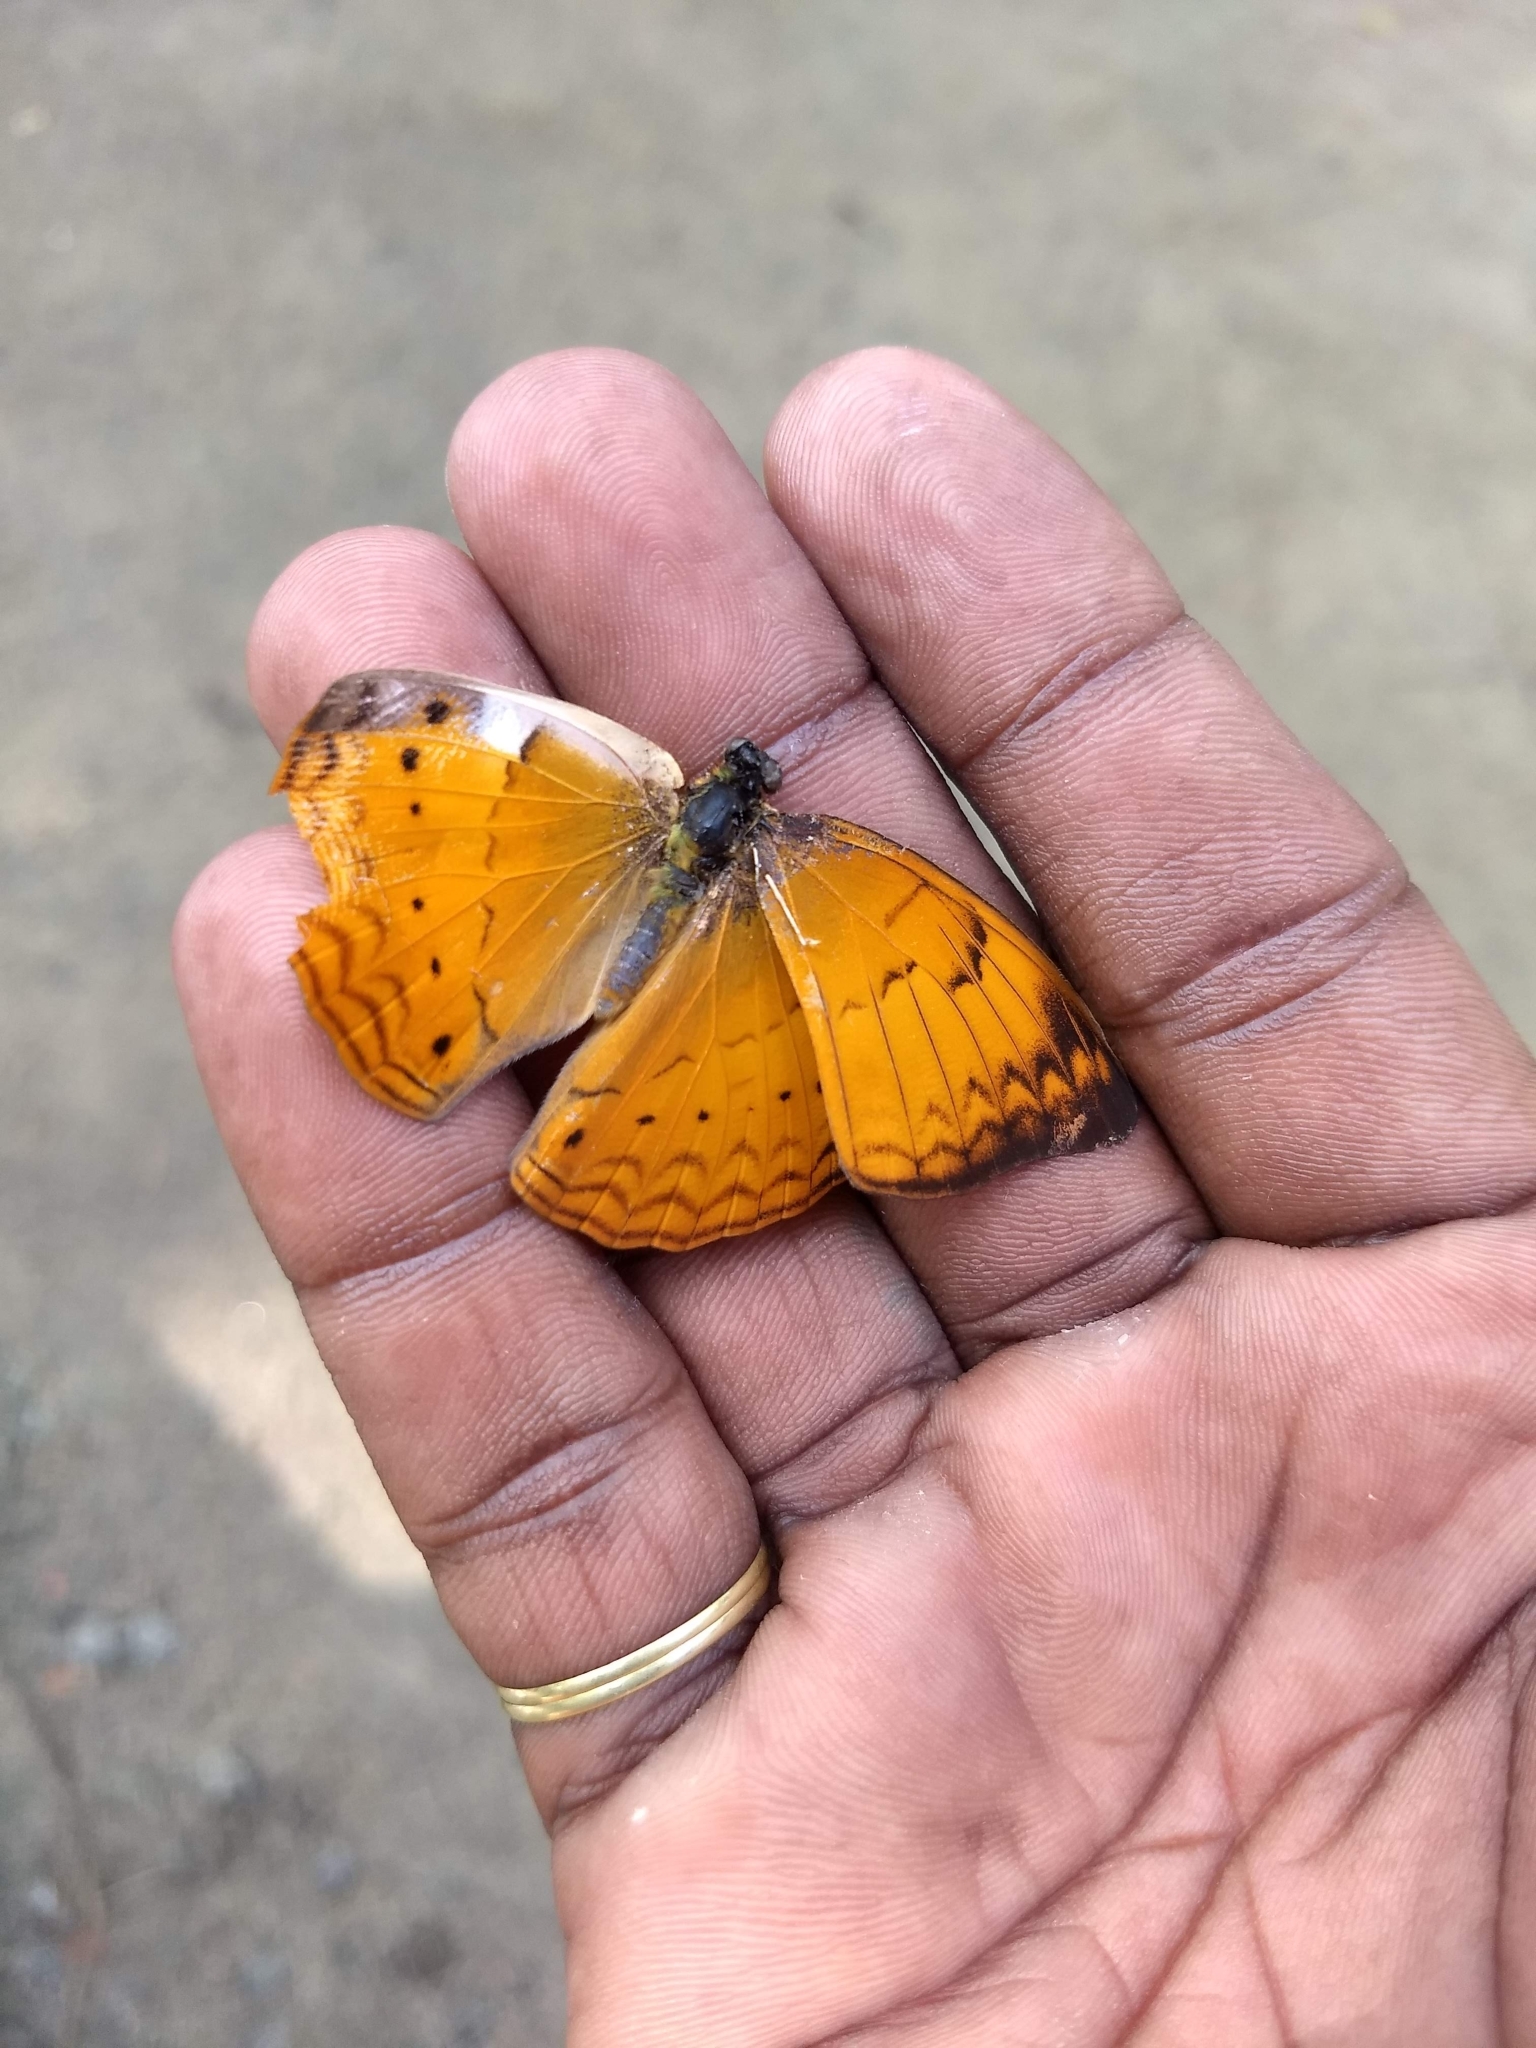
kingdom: Animalia
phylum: Arthropoda
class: Insecta
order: Lepidoptera
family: Nymphalidae
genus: Cirrochroa
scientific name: Cirrochroa thais
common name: Tamil yeoman
